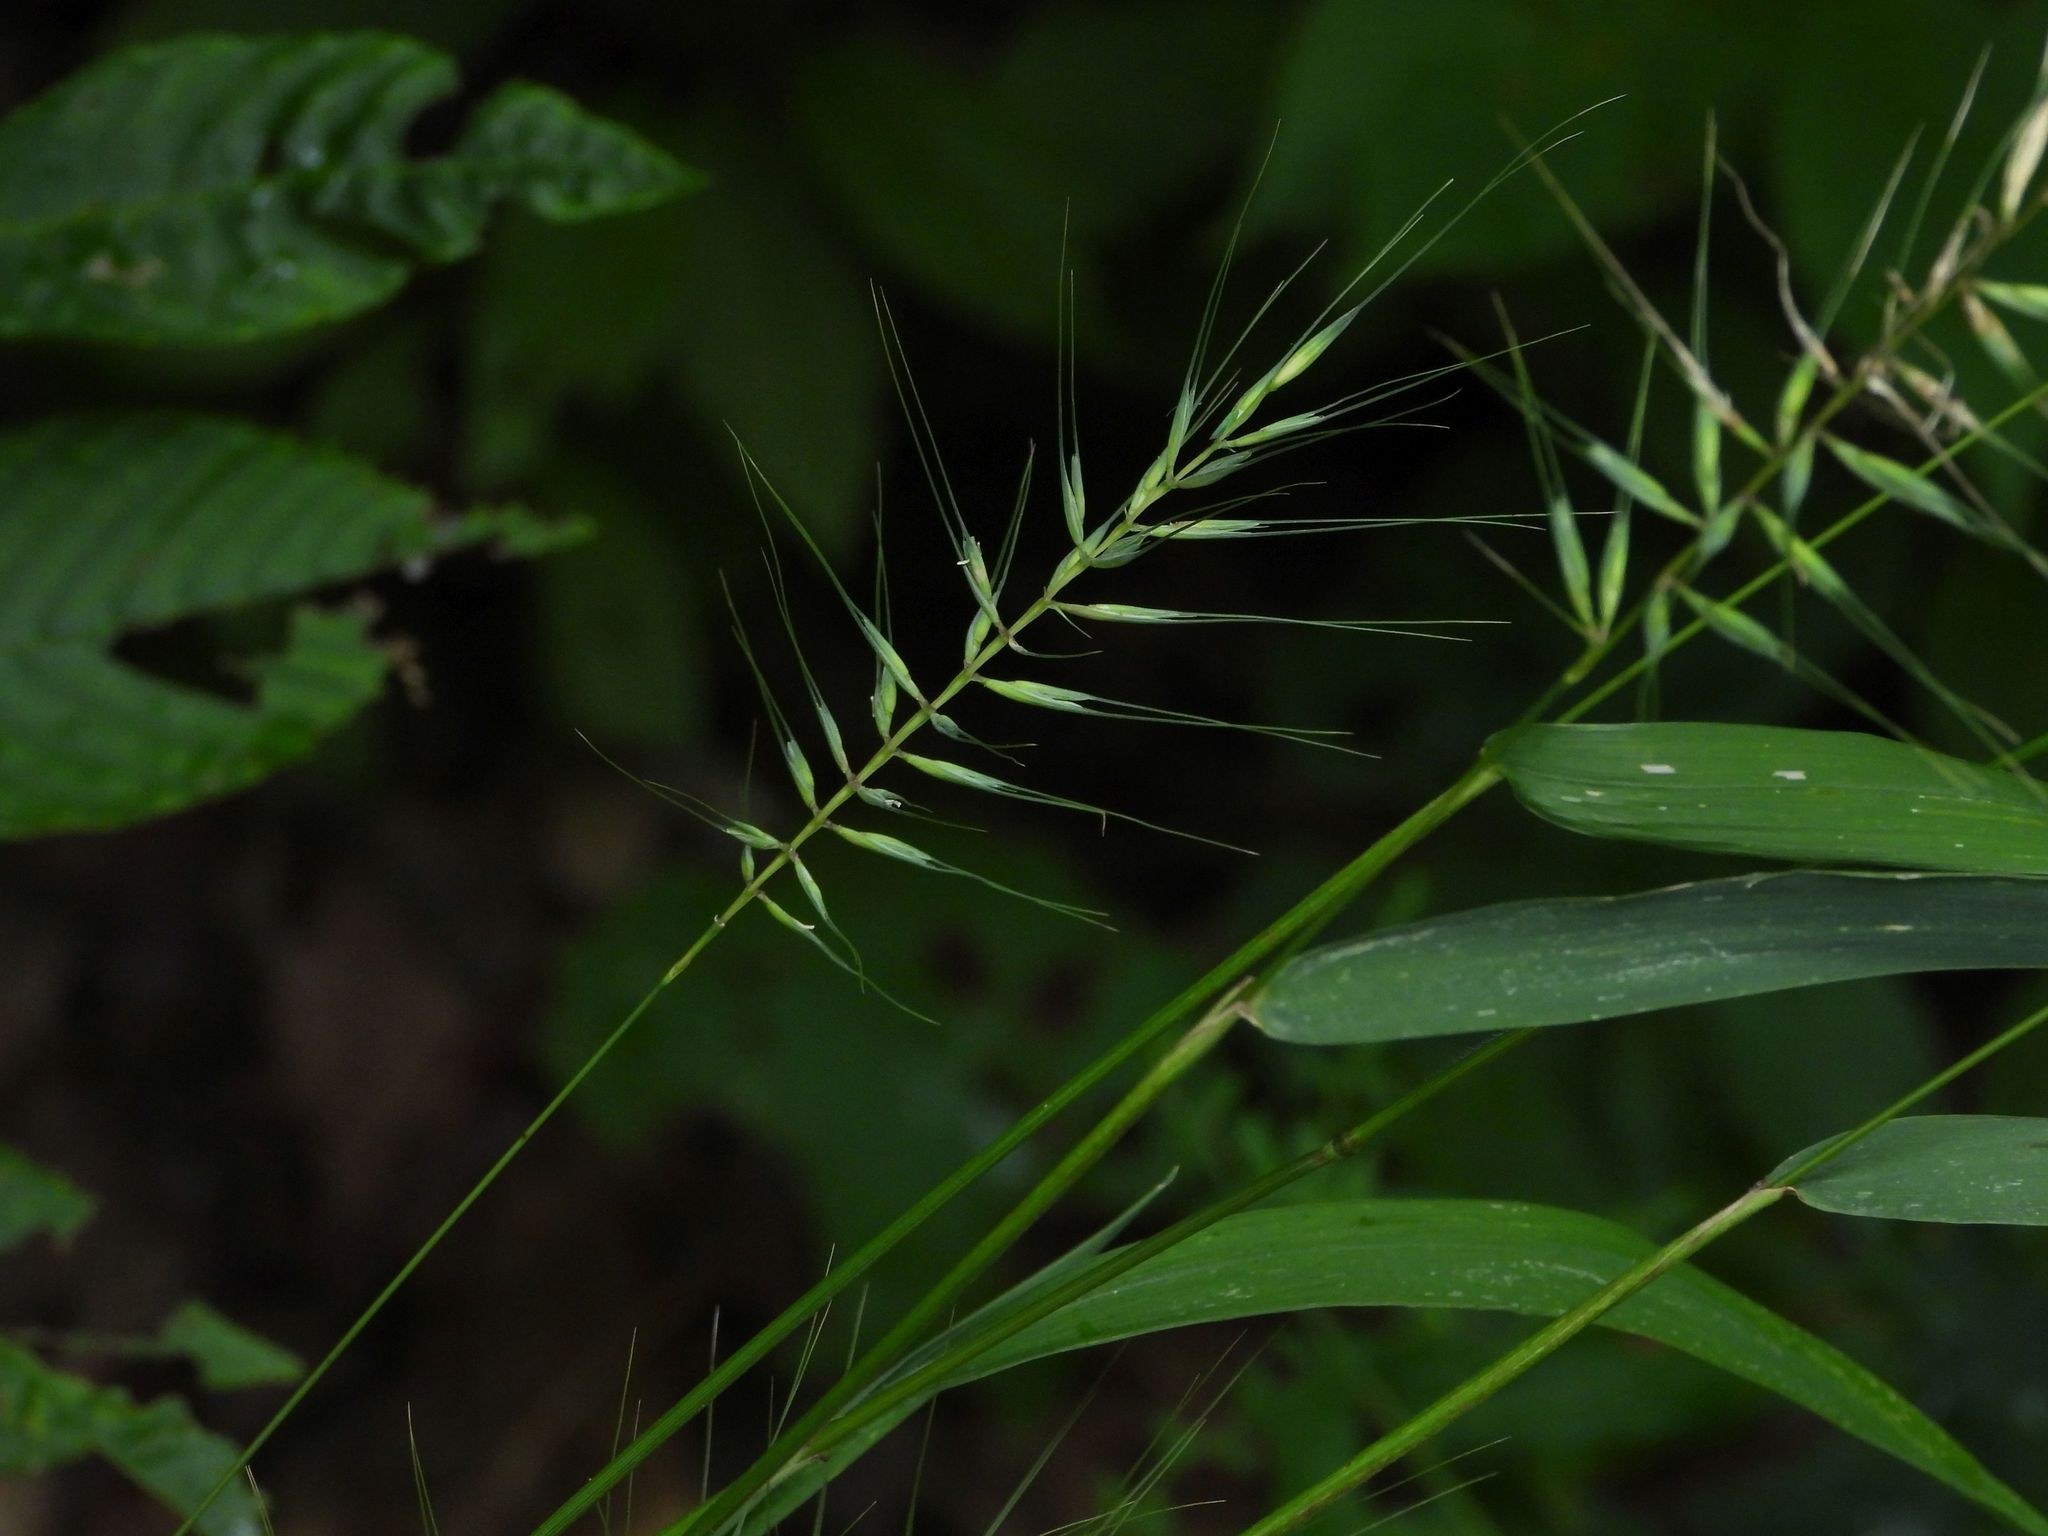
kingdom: Plantae
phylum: Tracheophyta
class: Liliopsida
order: Poales
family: Poaceae
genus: Elymus
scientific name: Elymus hystrix
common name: Bottlebrush grass
